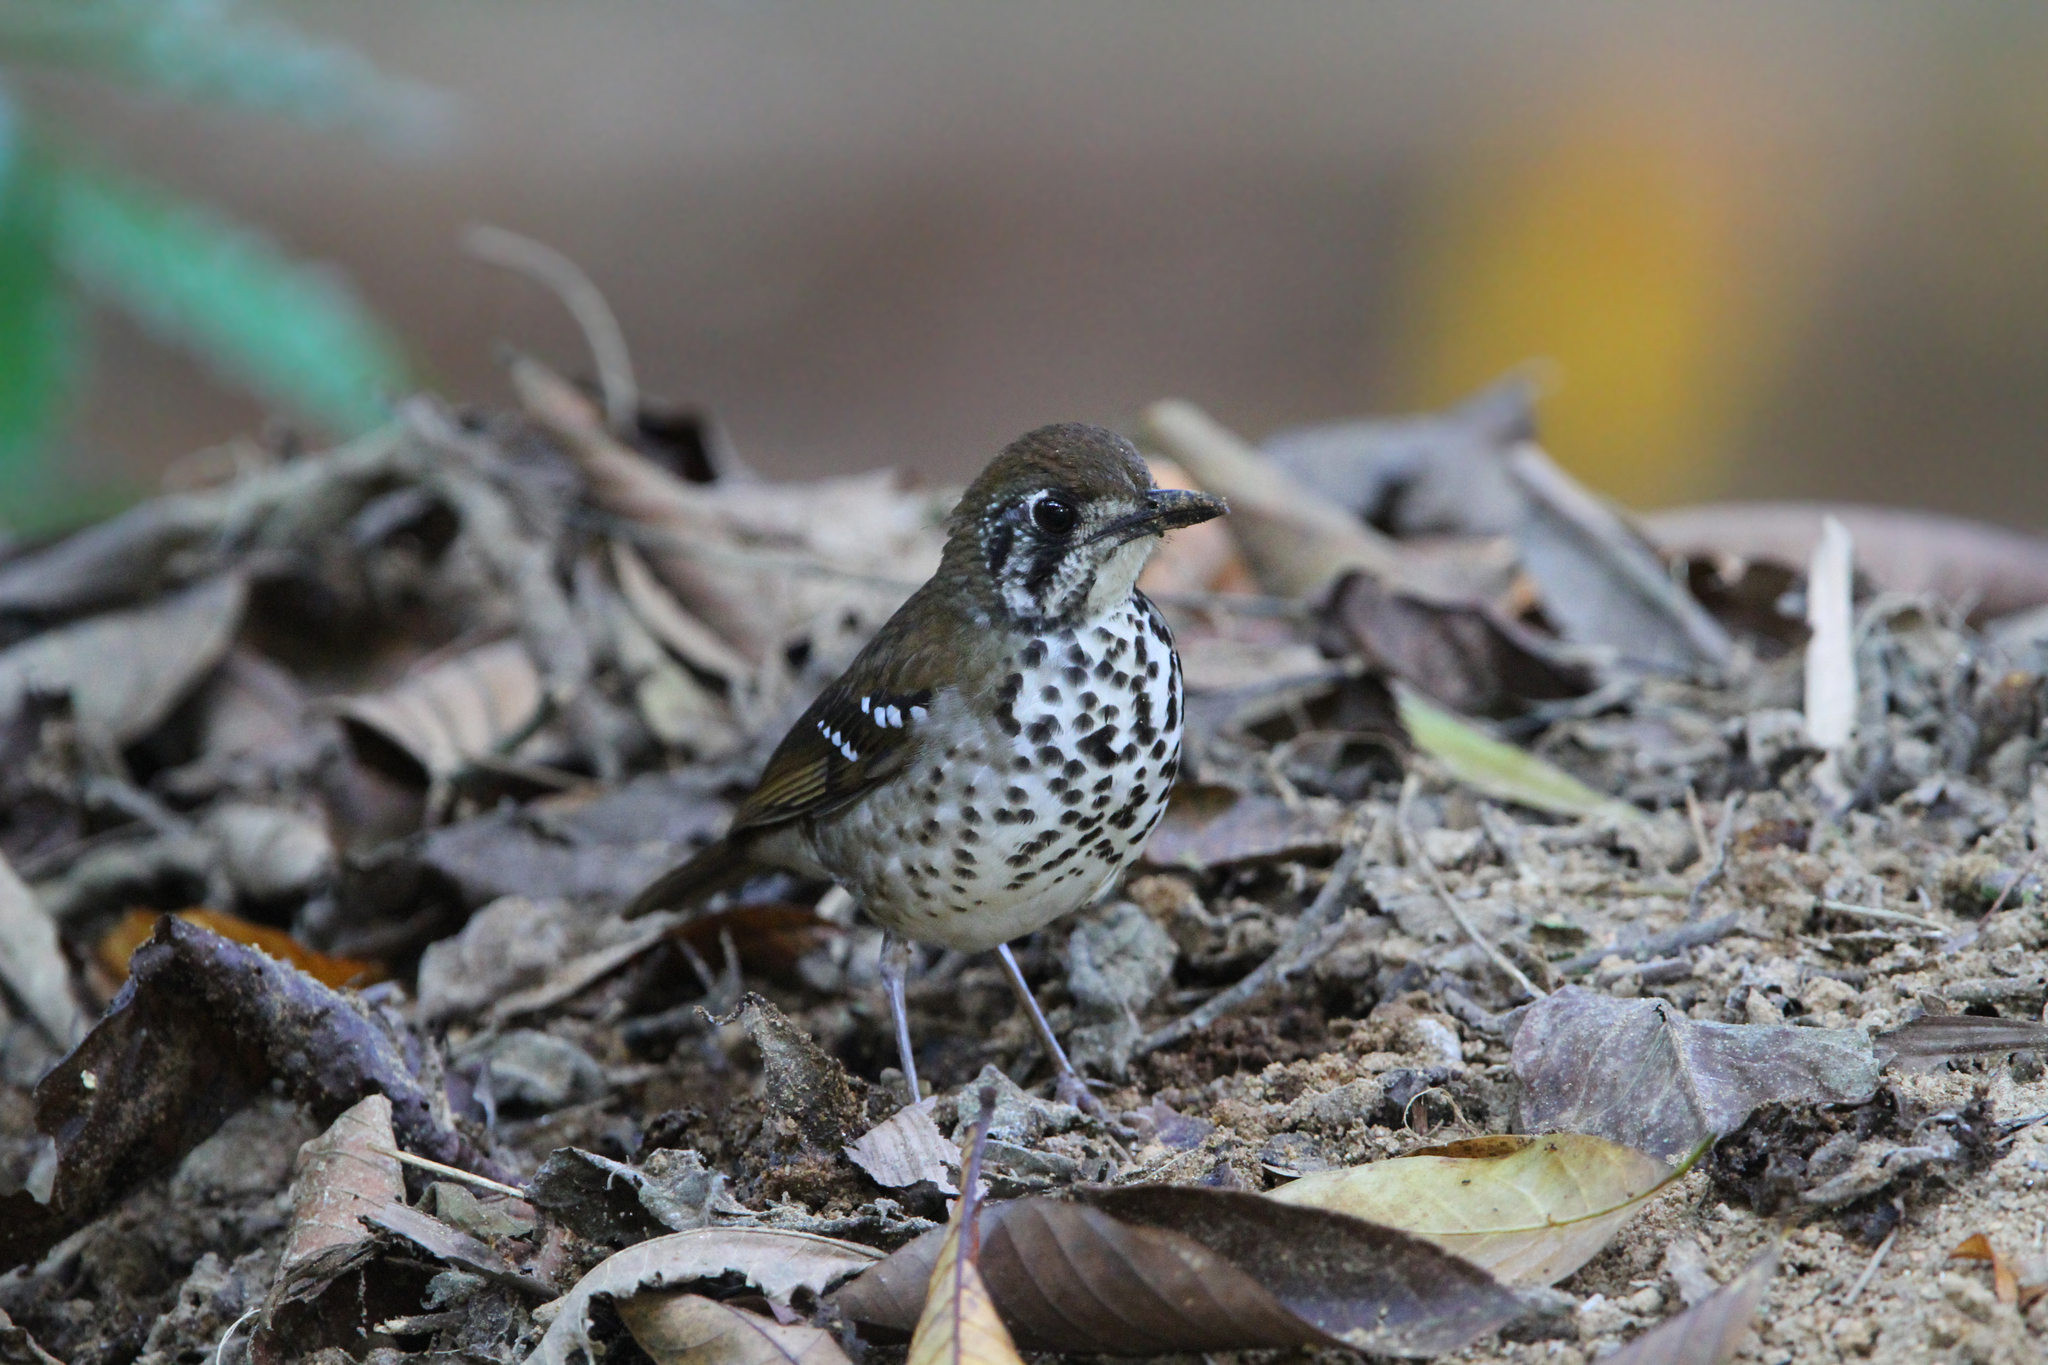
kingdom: Animalia
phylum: Chordata
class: Aves
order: Passeriformes
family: Turdidae
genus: Geokichla
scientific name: Geokichla spiloptera
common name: Spot-winged thrush
